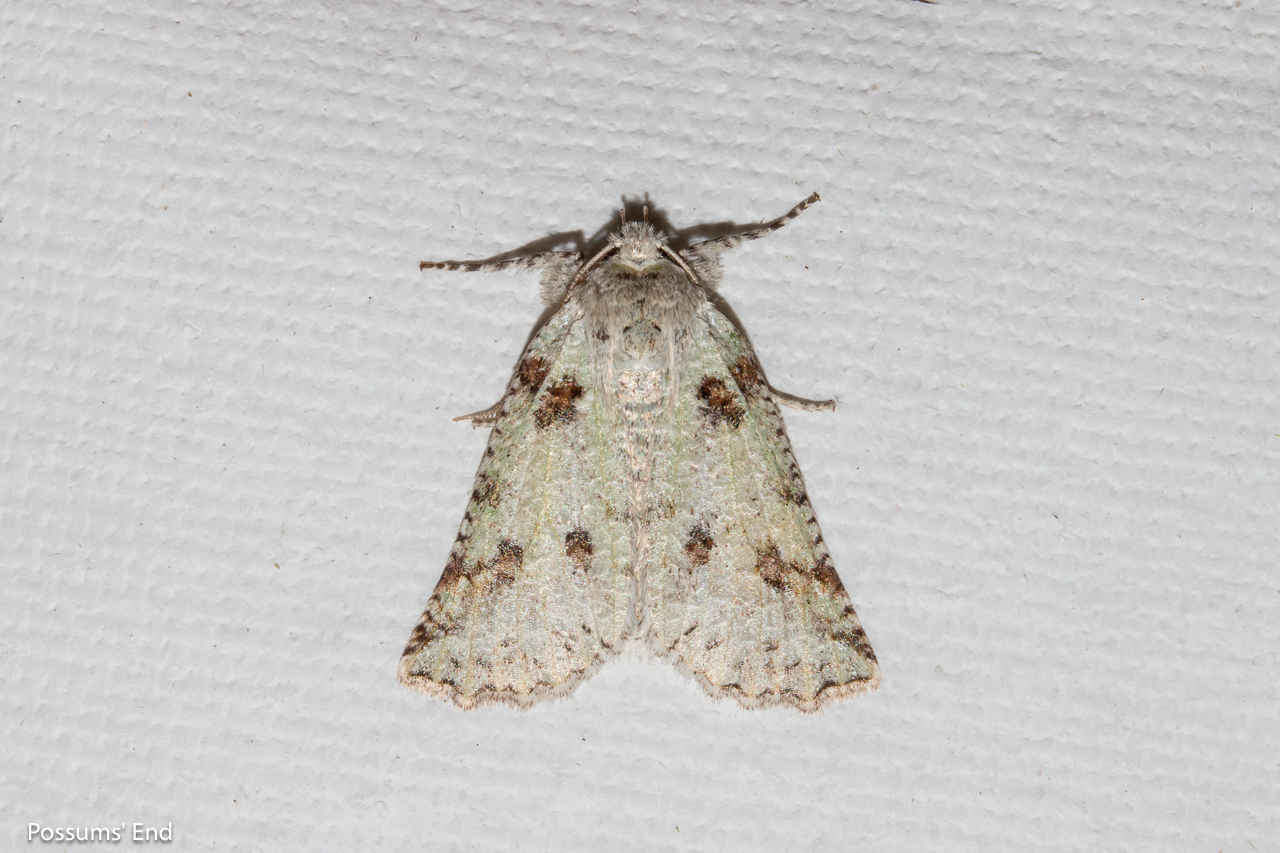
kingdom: Animalia
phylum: Arthropoda
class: Insecta
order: Lepidoptera
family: Geometridae
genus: Declana
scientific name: Declana floccosa
